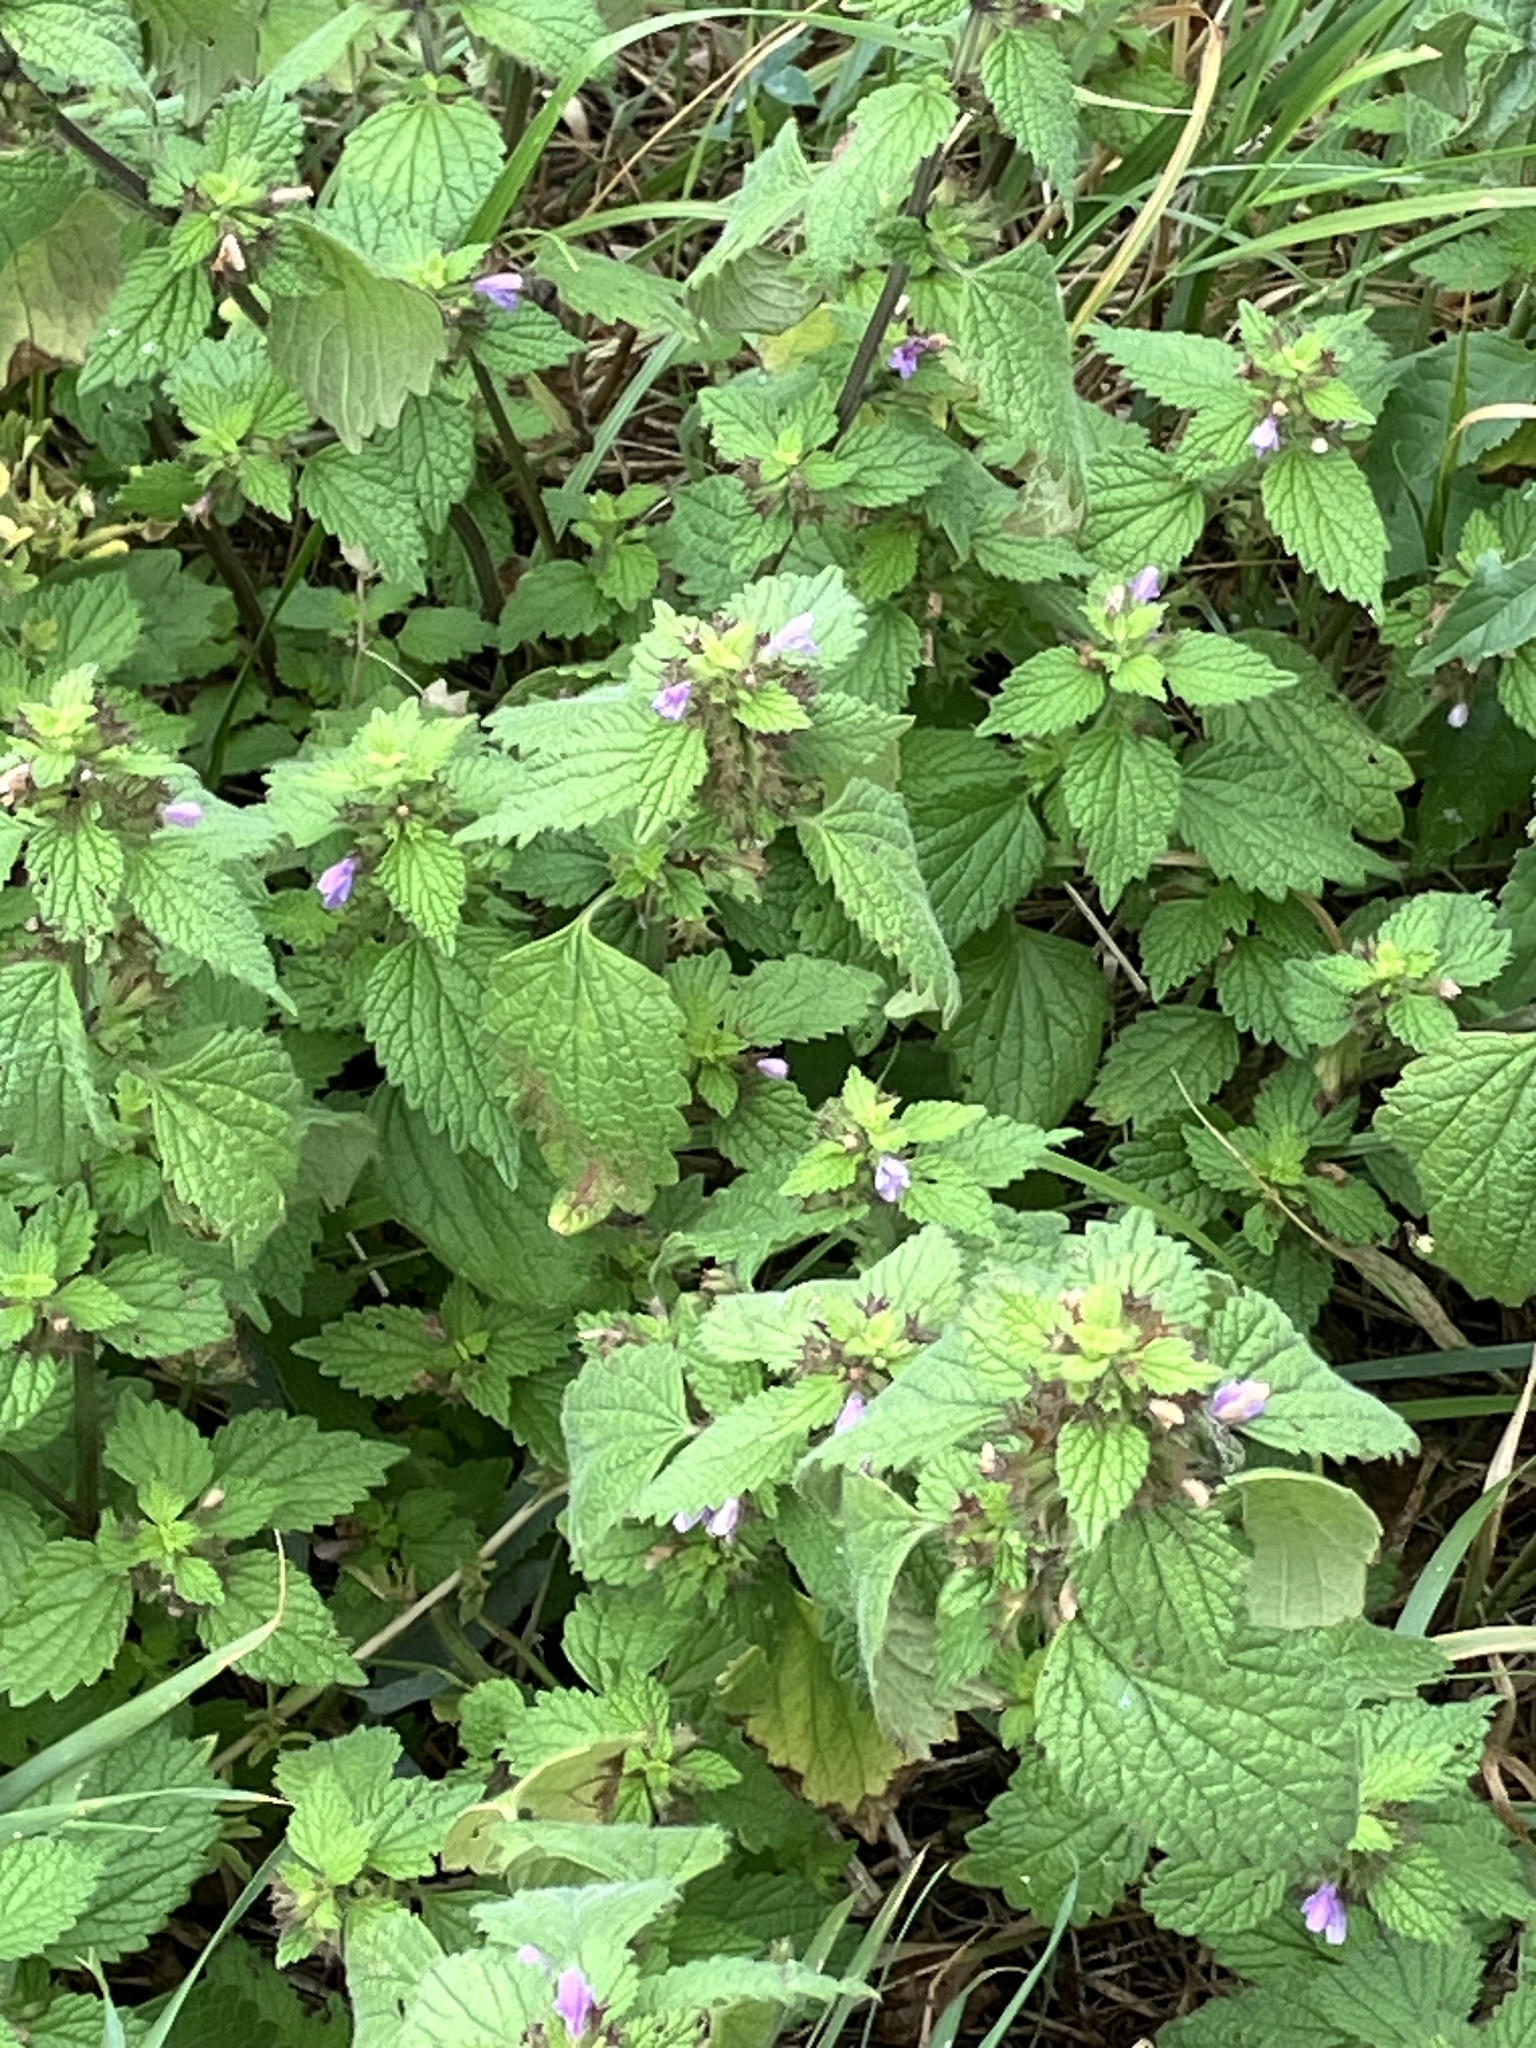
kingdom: Plantae
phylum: Tracheophyta
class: Magnoliopsida
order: Lamiales
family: Lamiaceae
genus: Ballota
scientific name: Ballota nigra
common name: Black horehound
